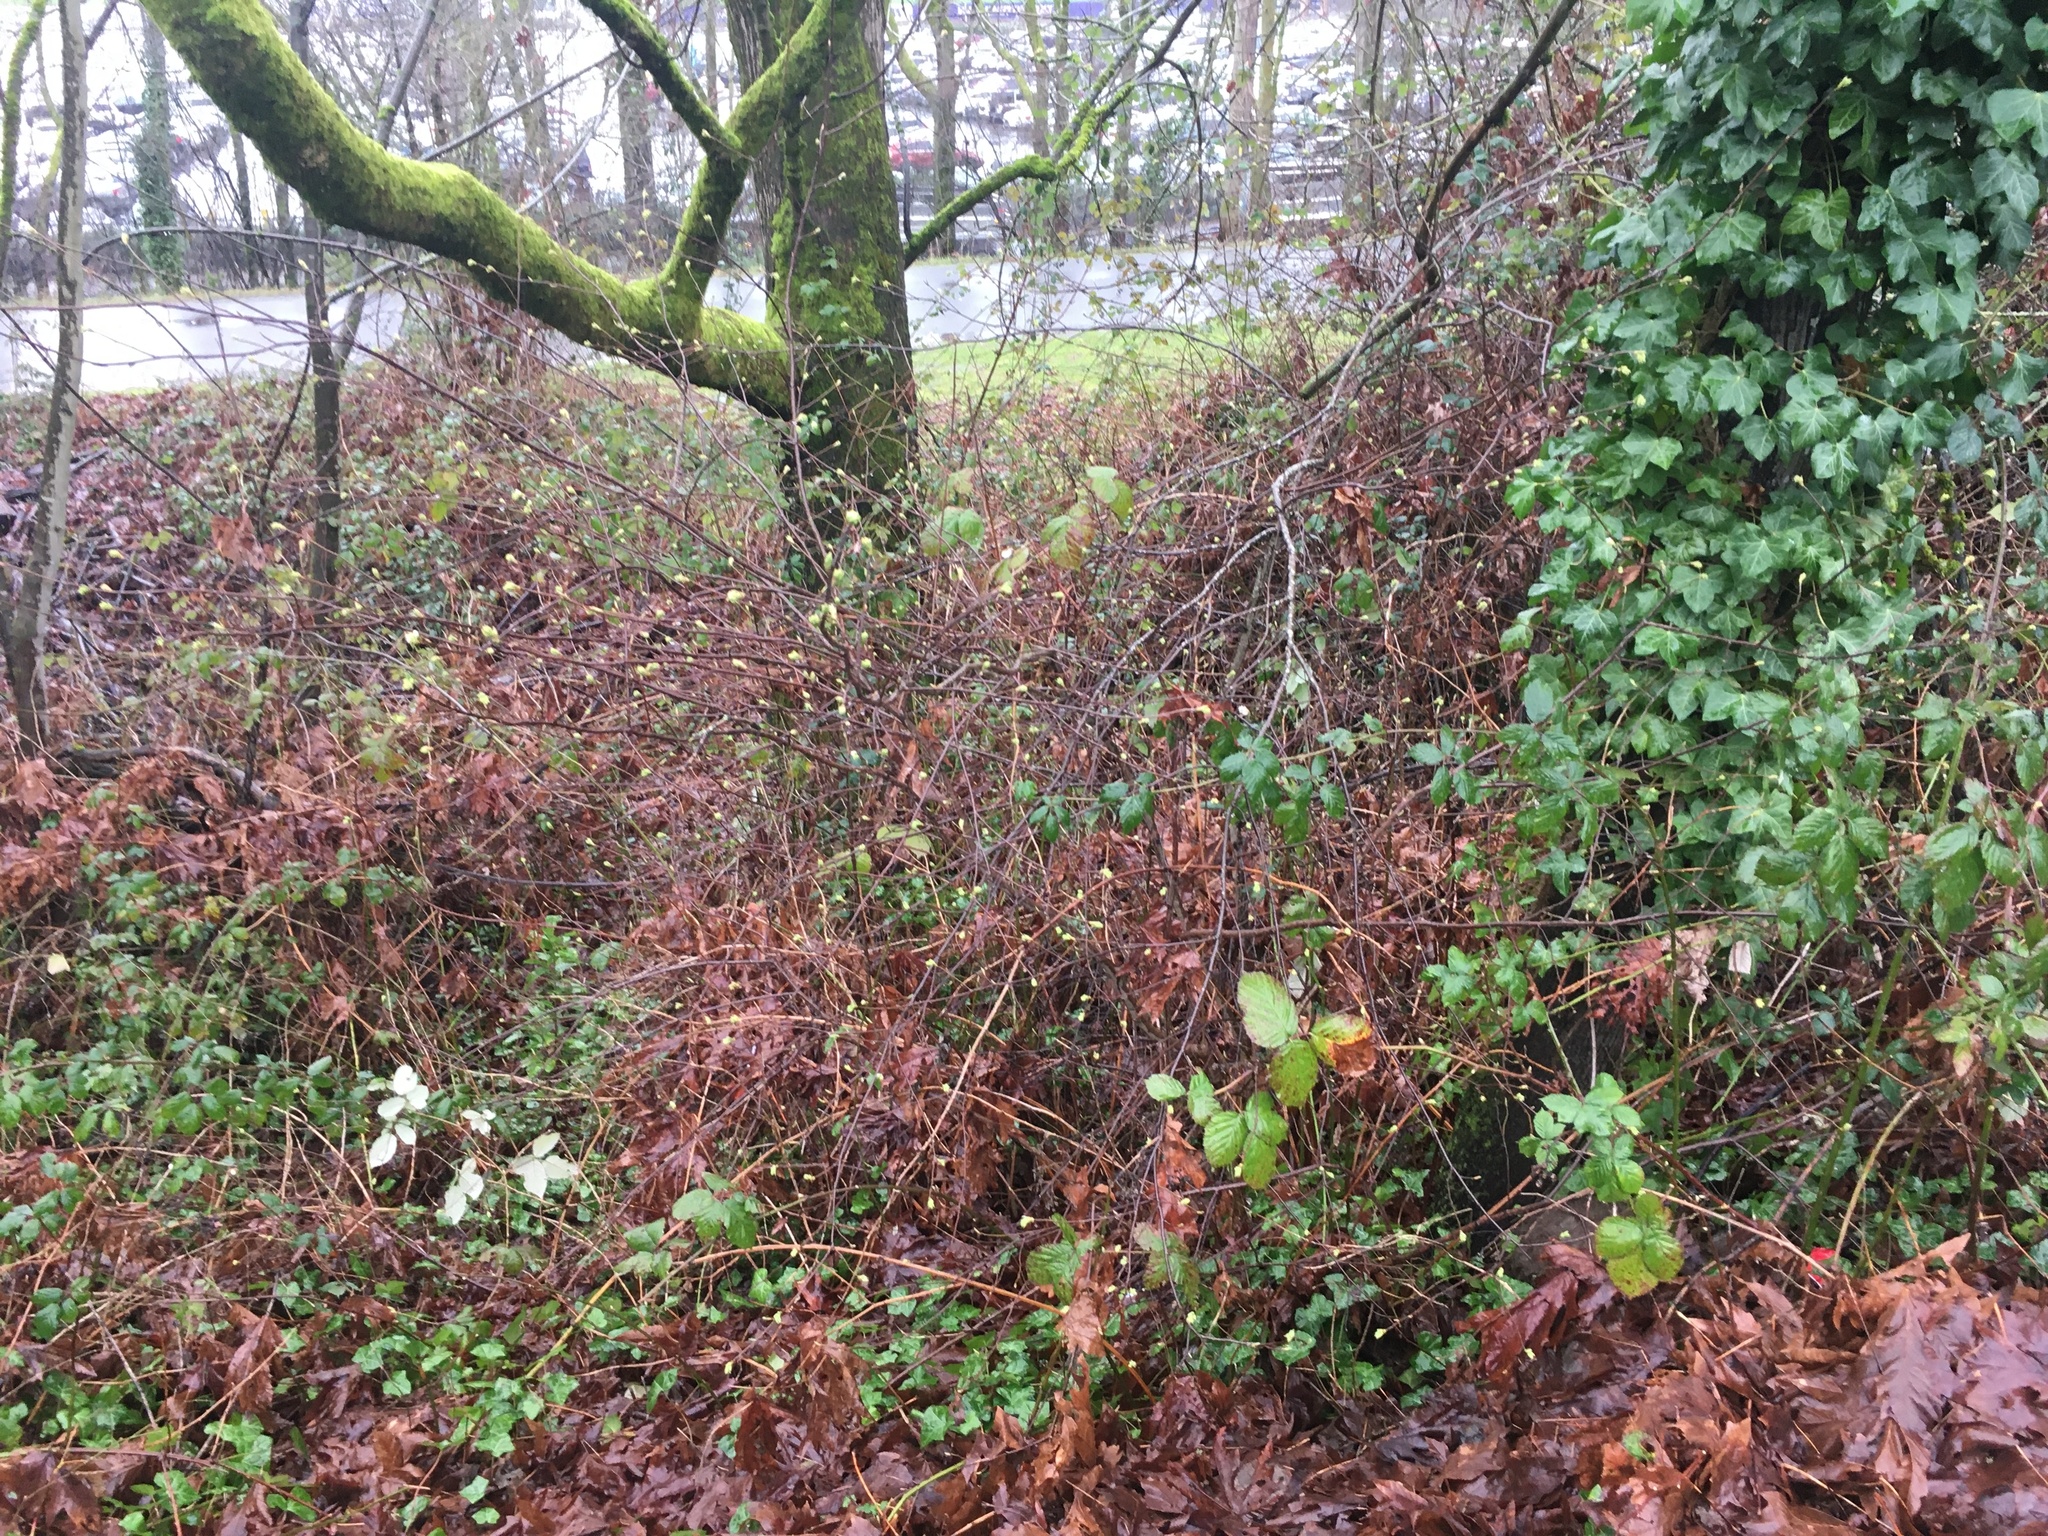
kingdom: Plantae
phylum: Tracheophyta
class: Magnoliopsida
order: Rosales
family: Rosaceae
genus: Oemleria
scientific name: Oemleria cerasiformis
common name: Osoberry
